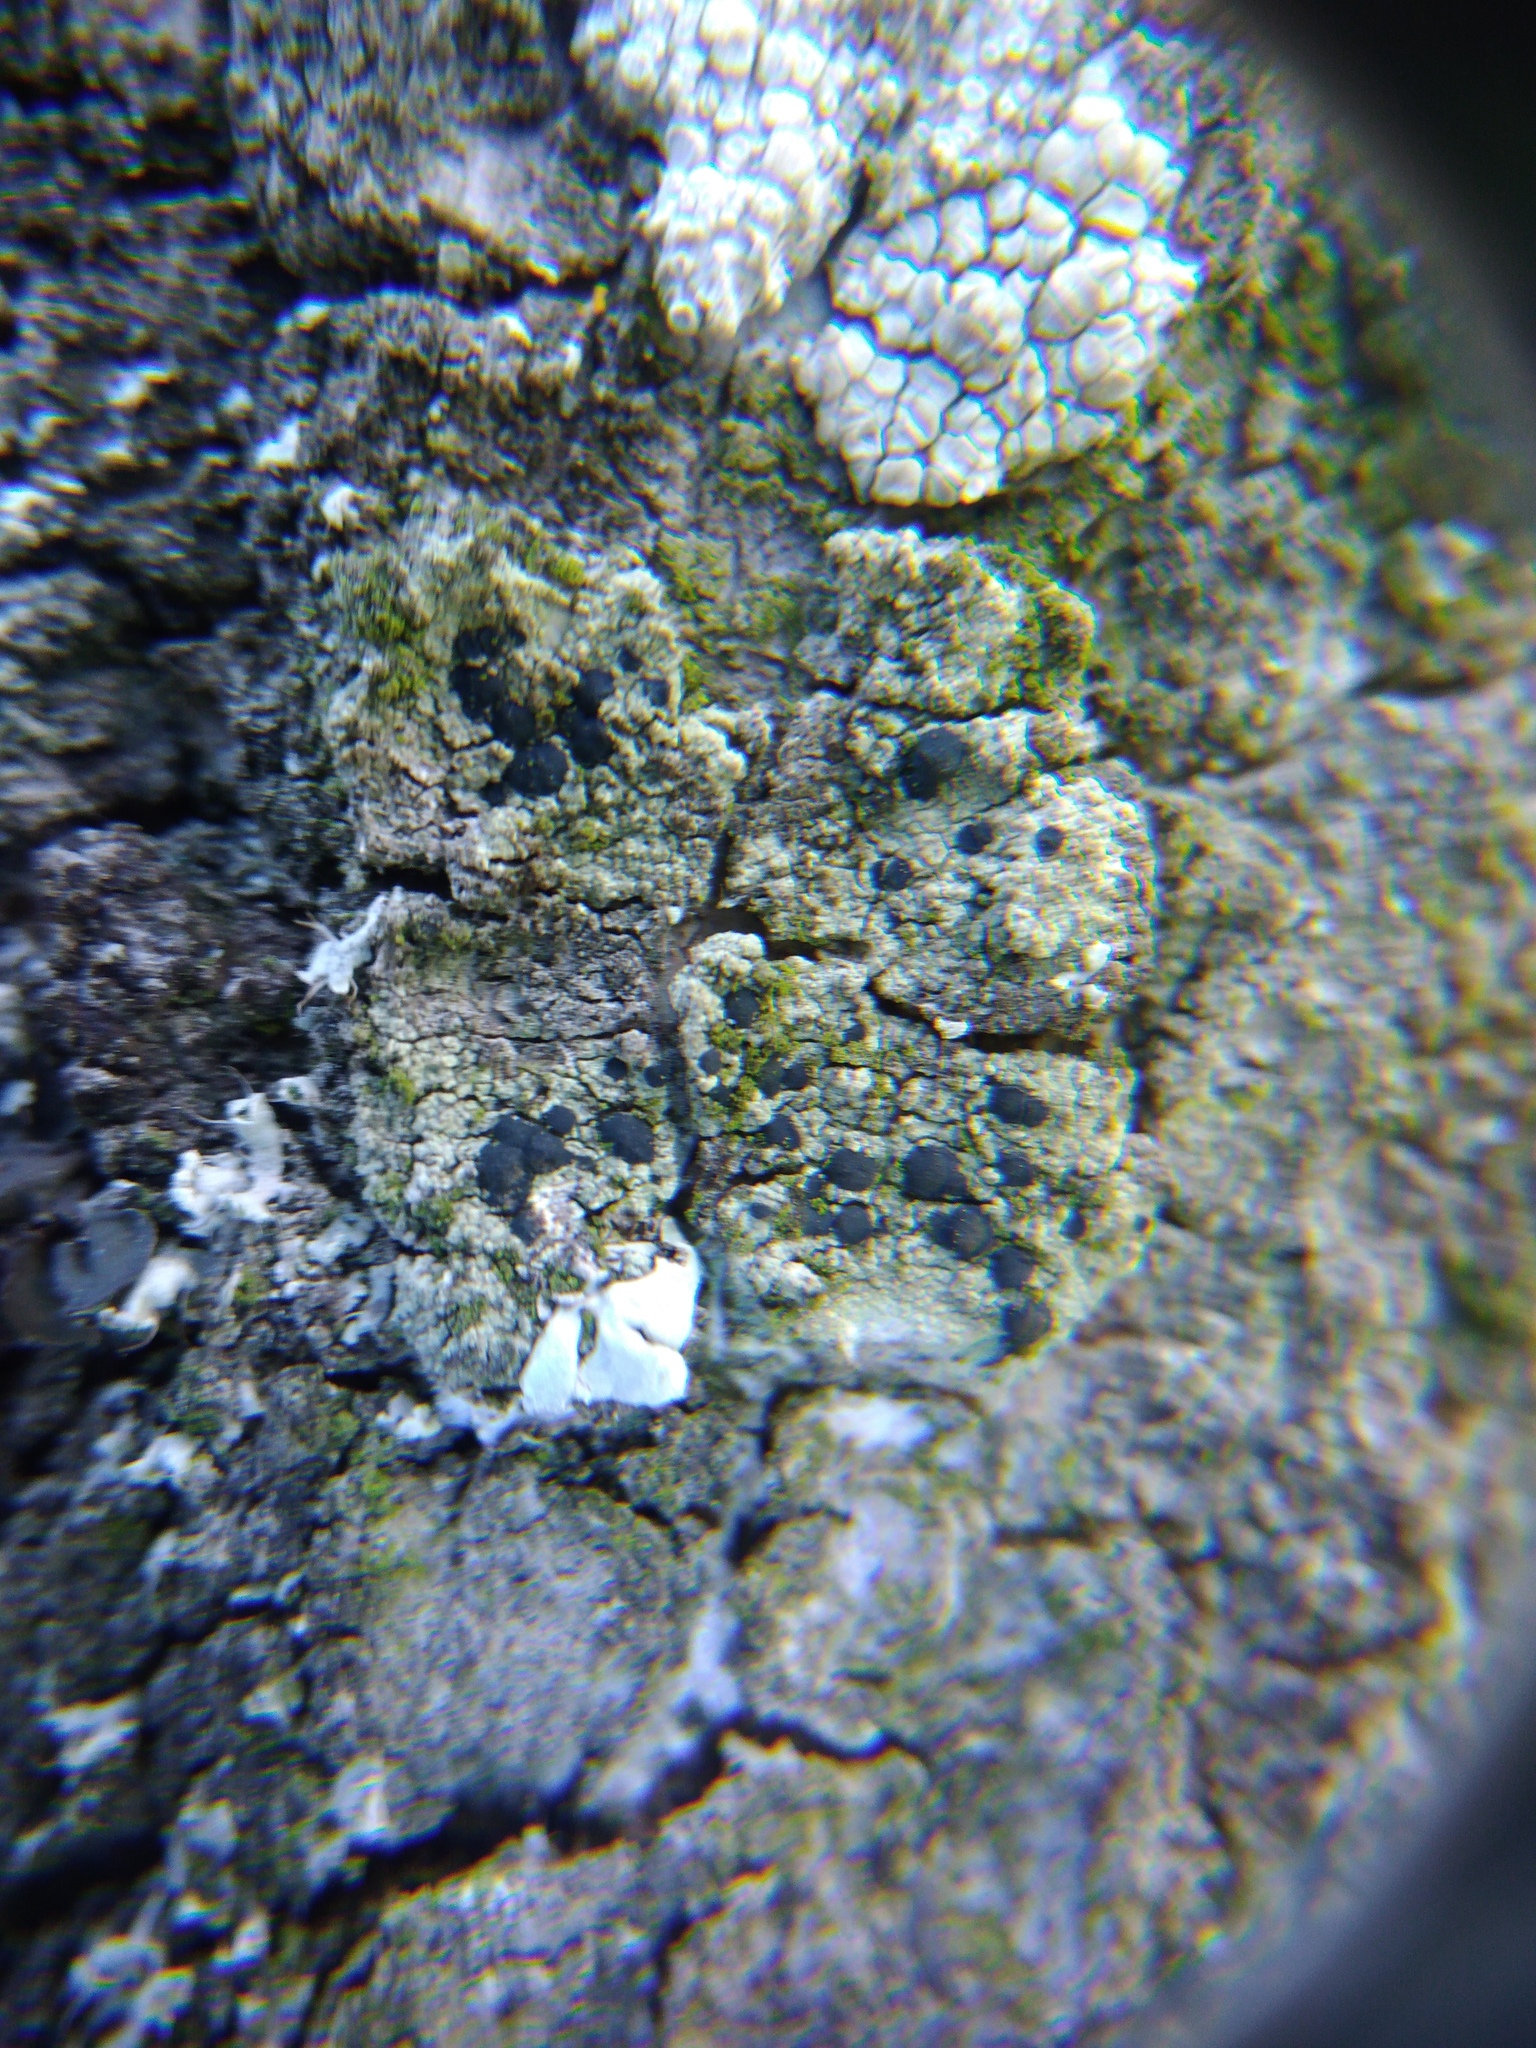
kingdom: Fungi
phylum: Ascomycota
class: Lecanoromycetes
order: Lecanorales
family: Lecanoraceae
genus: Lecidella
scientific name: Lecidella elaeochroma
